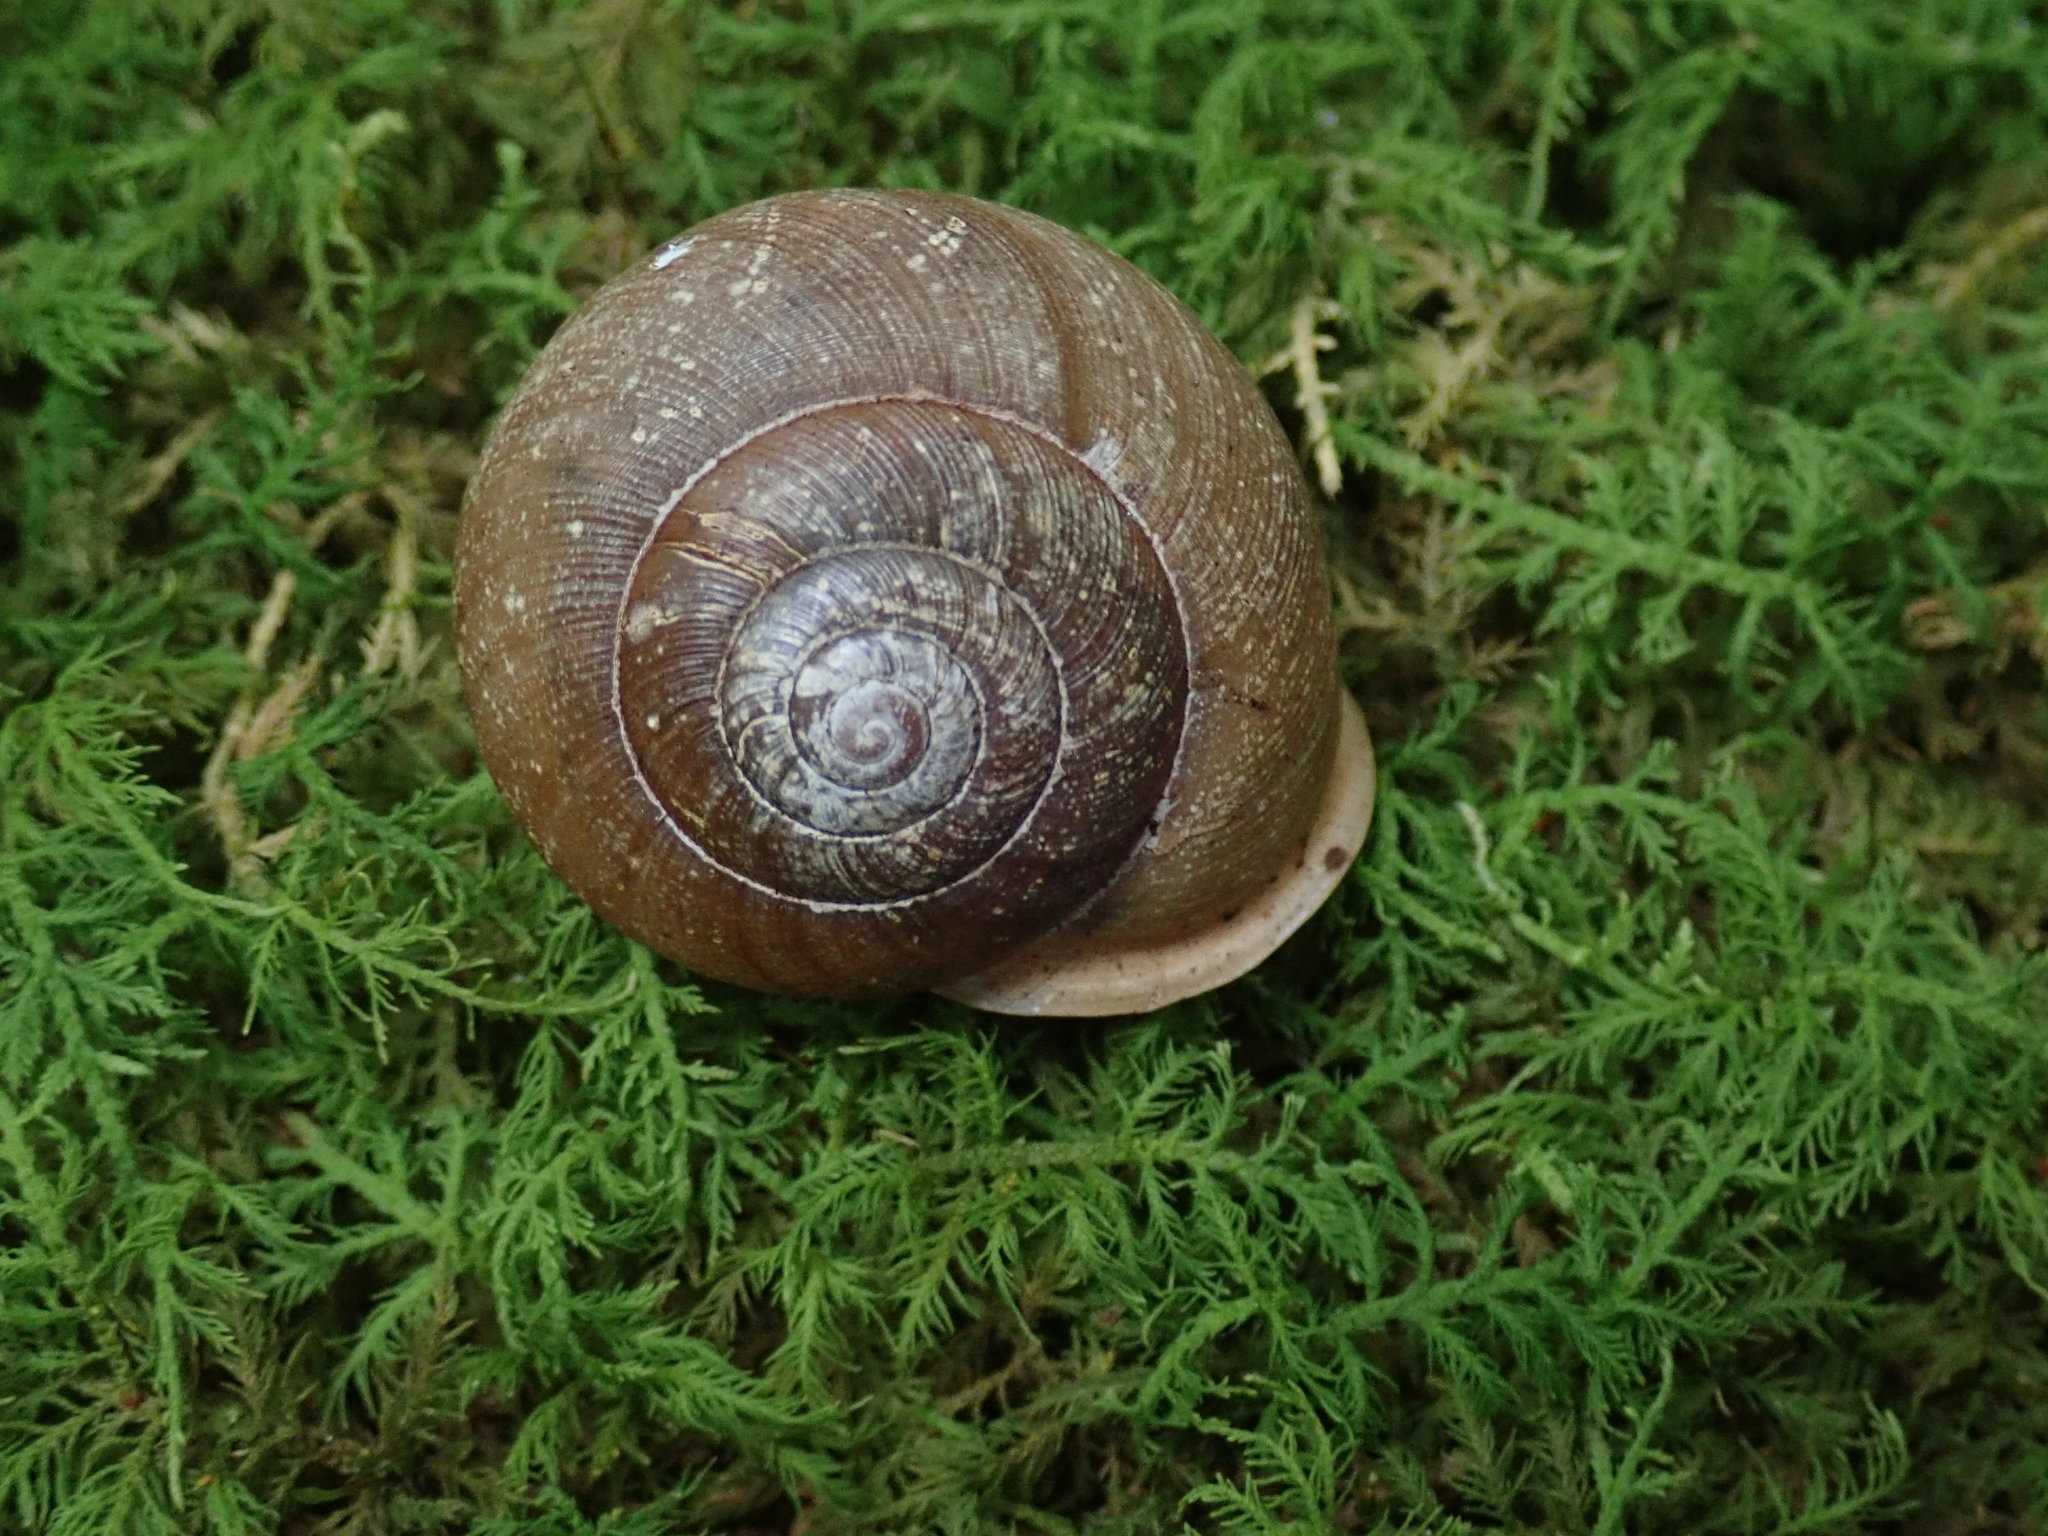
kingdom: Animalia
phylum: Mollusca
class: Gastropoda
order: Stylommatophora
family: Polygyridae
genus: Neohelix
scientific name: Neohelix albolabris
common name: Eastern whitelip
